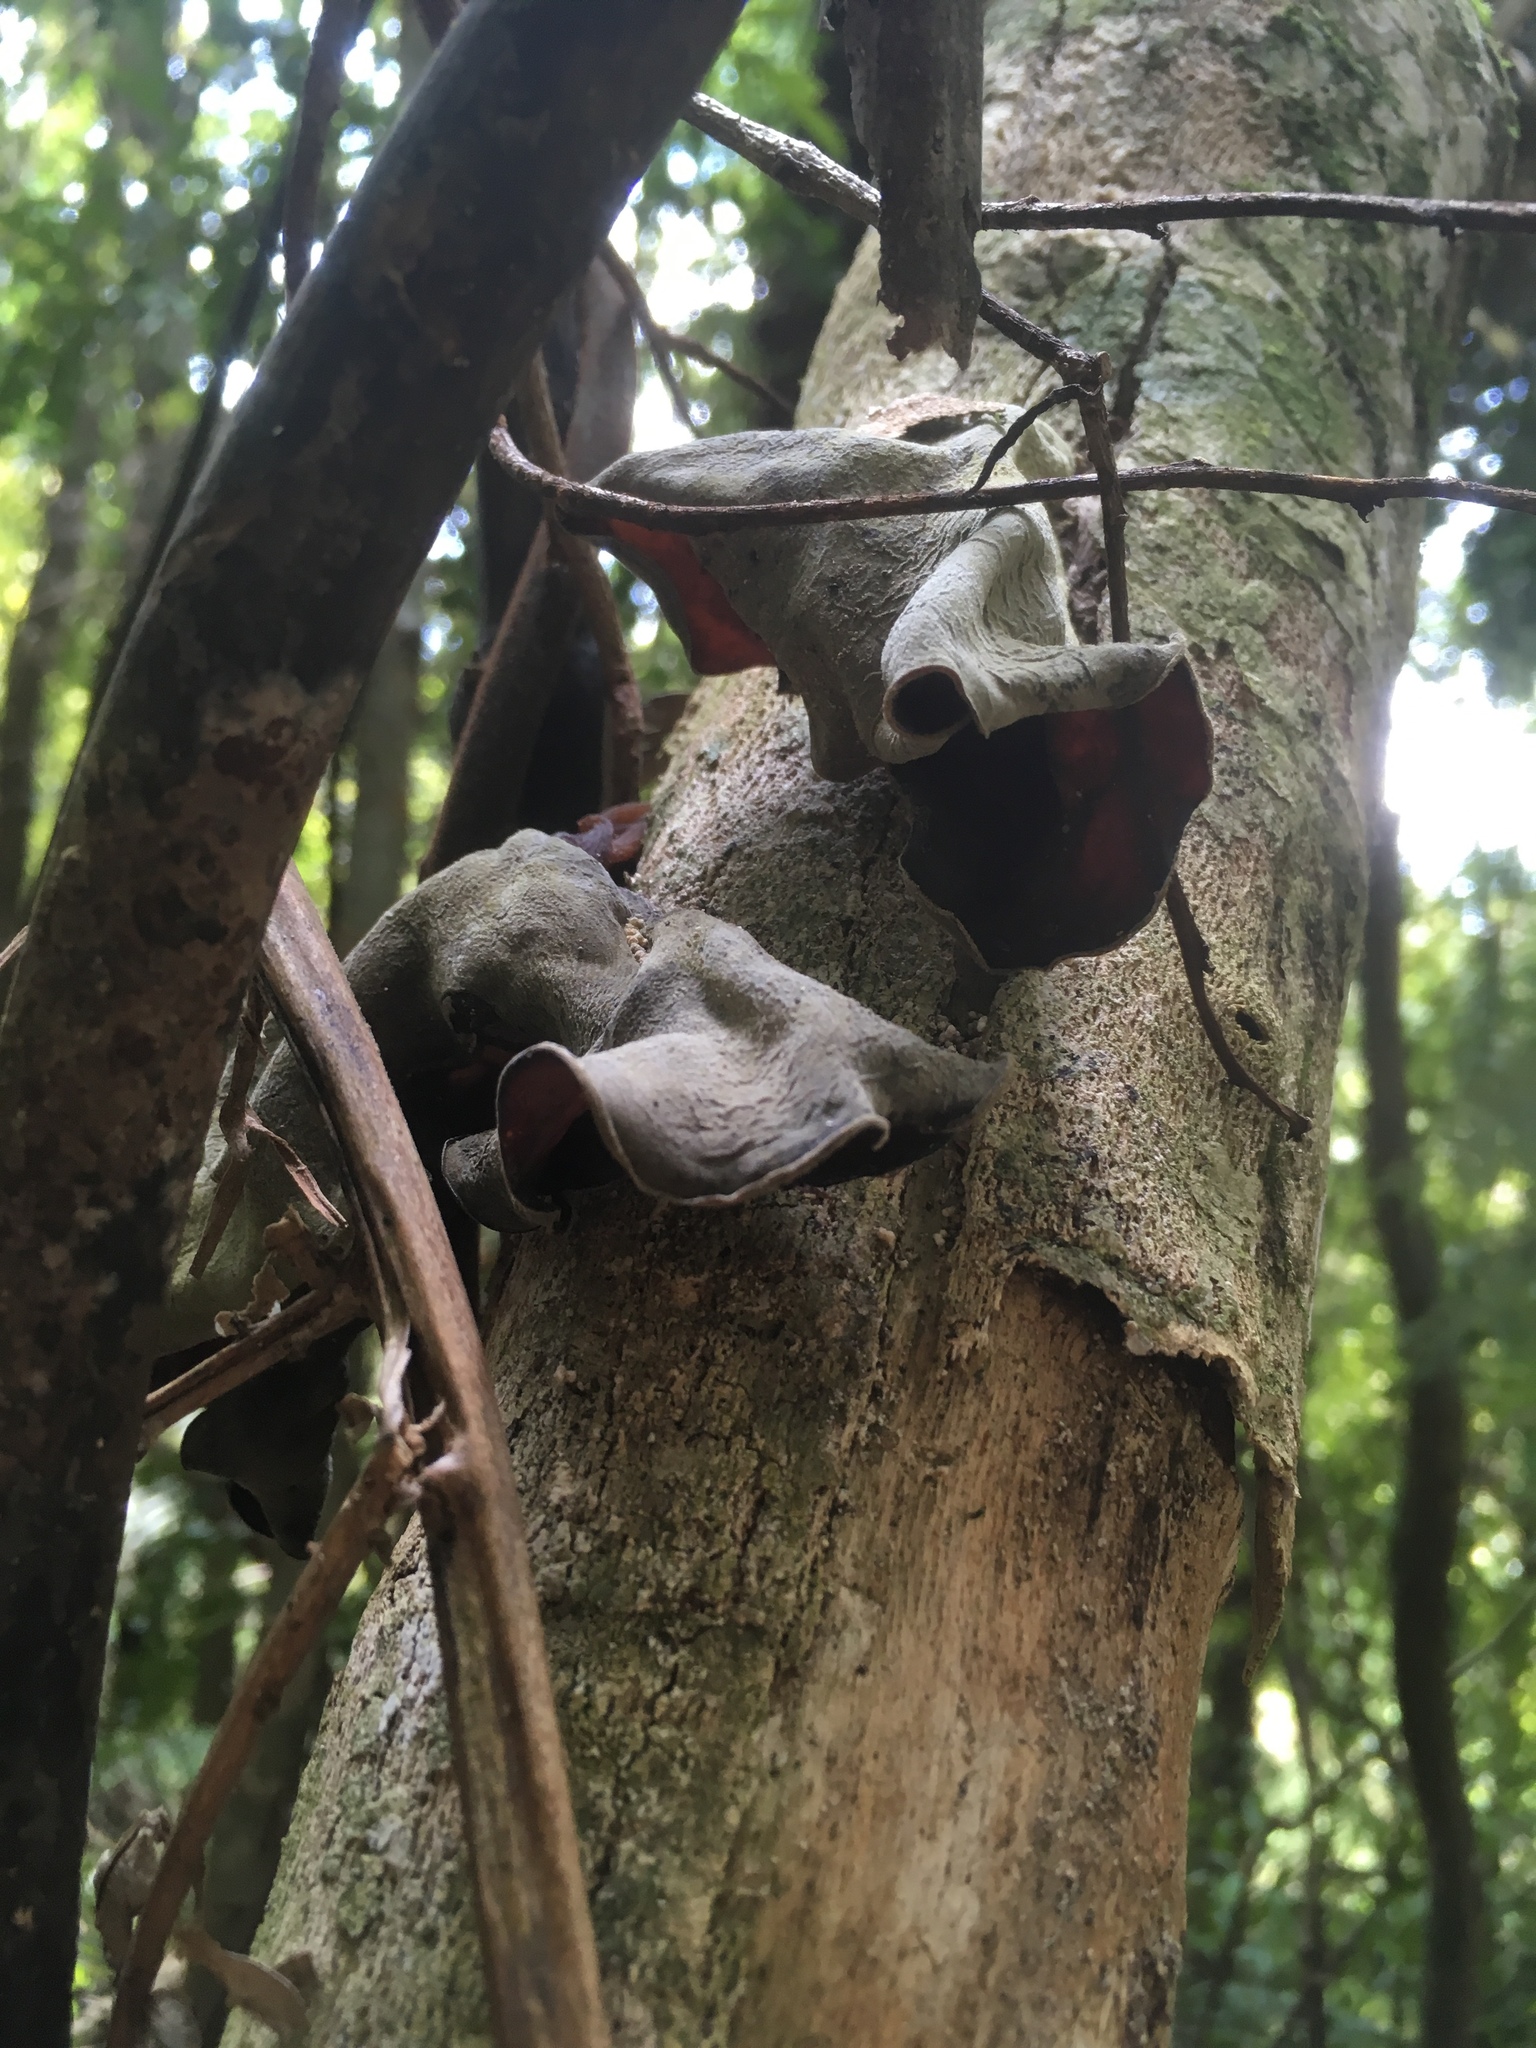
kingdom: Fungi
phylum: Basidiomycota
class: Agaricomycetes
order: Auriculariales
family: Auriculariaceae
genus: Auricularia
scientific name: Auricularia cornea
